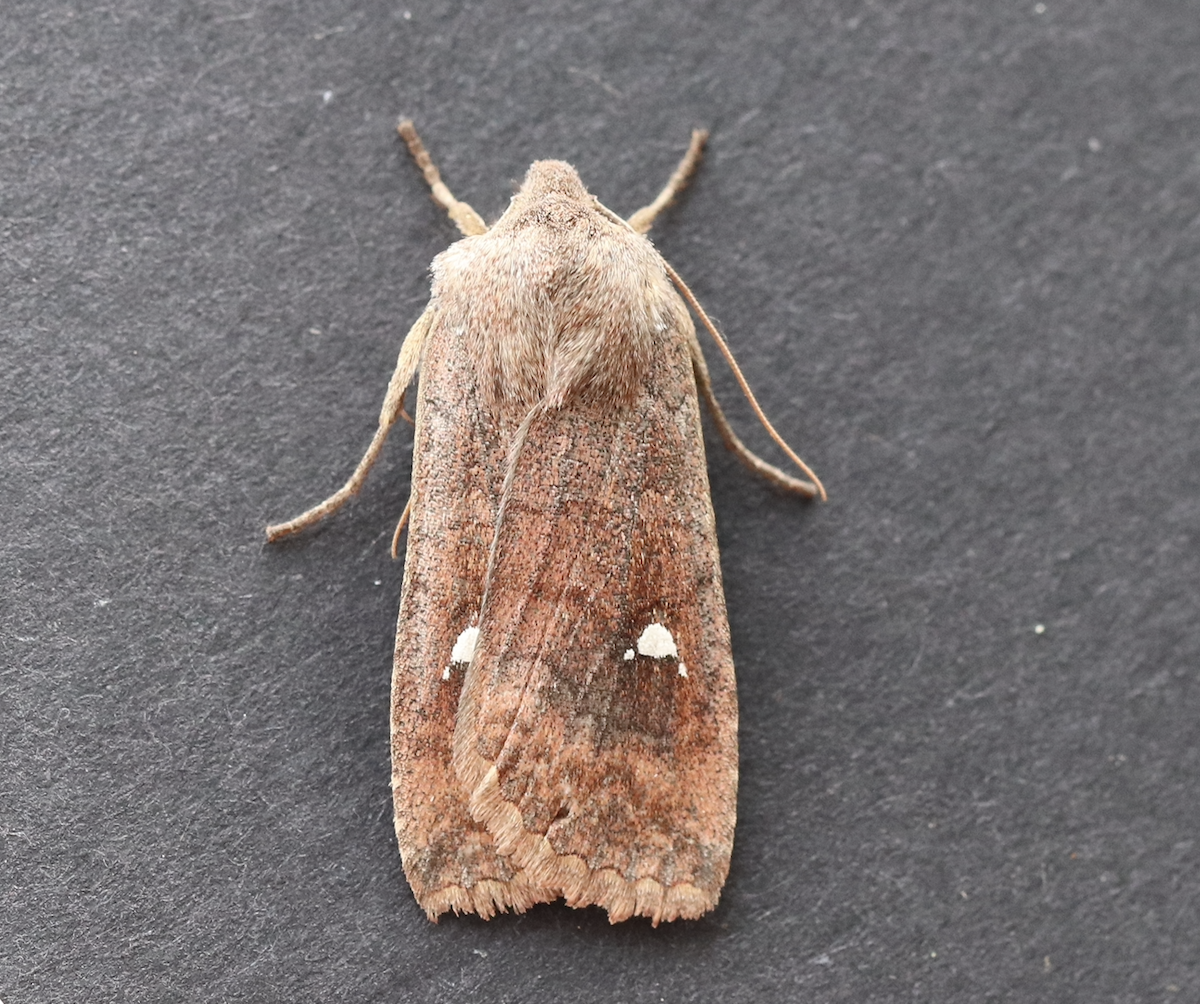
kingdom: Animalia
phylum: Arthropoda
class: Insecta
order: Lepidoptera
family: Noctuidae
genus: Eupsilia
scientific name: Eupsilia transversa
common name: Satellite
